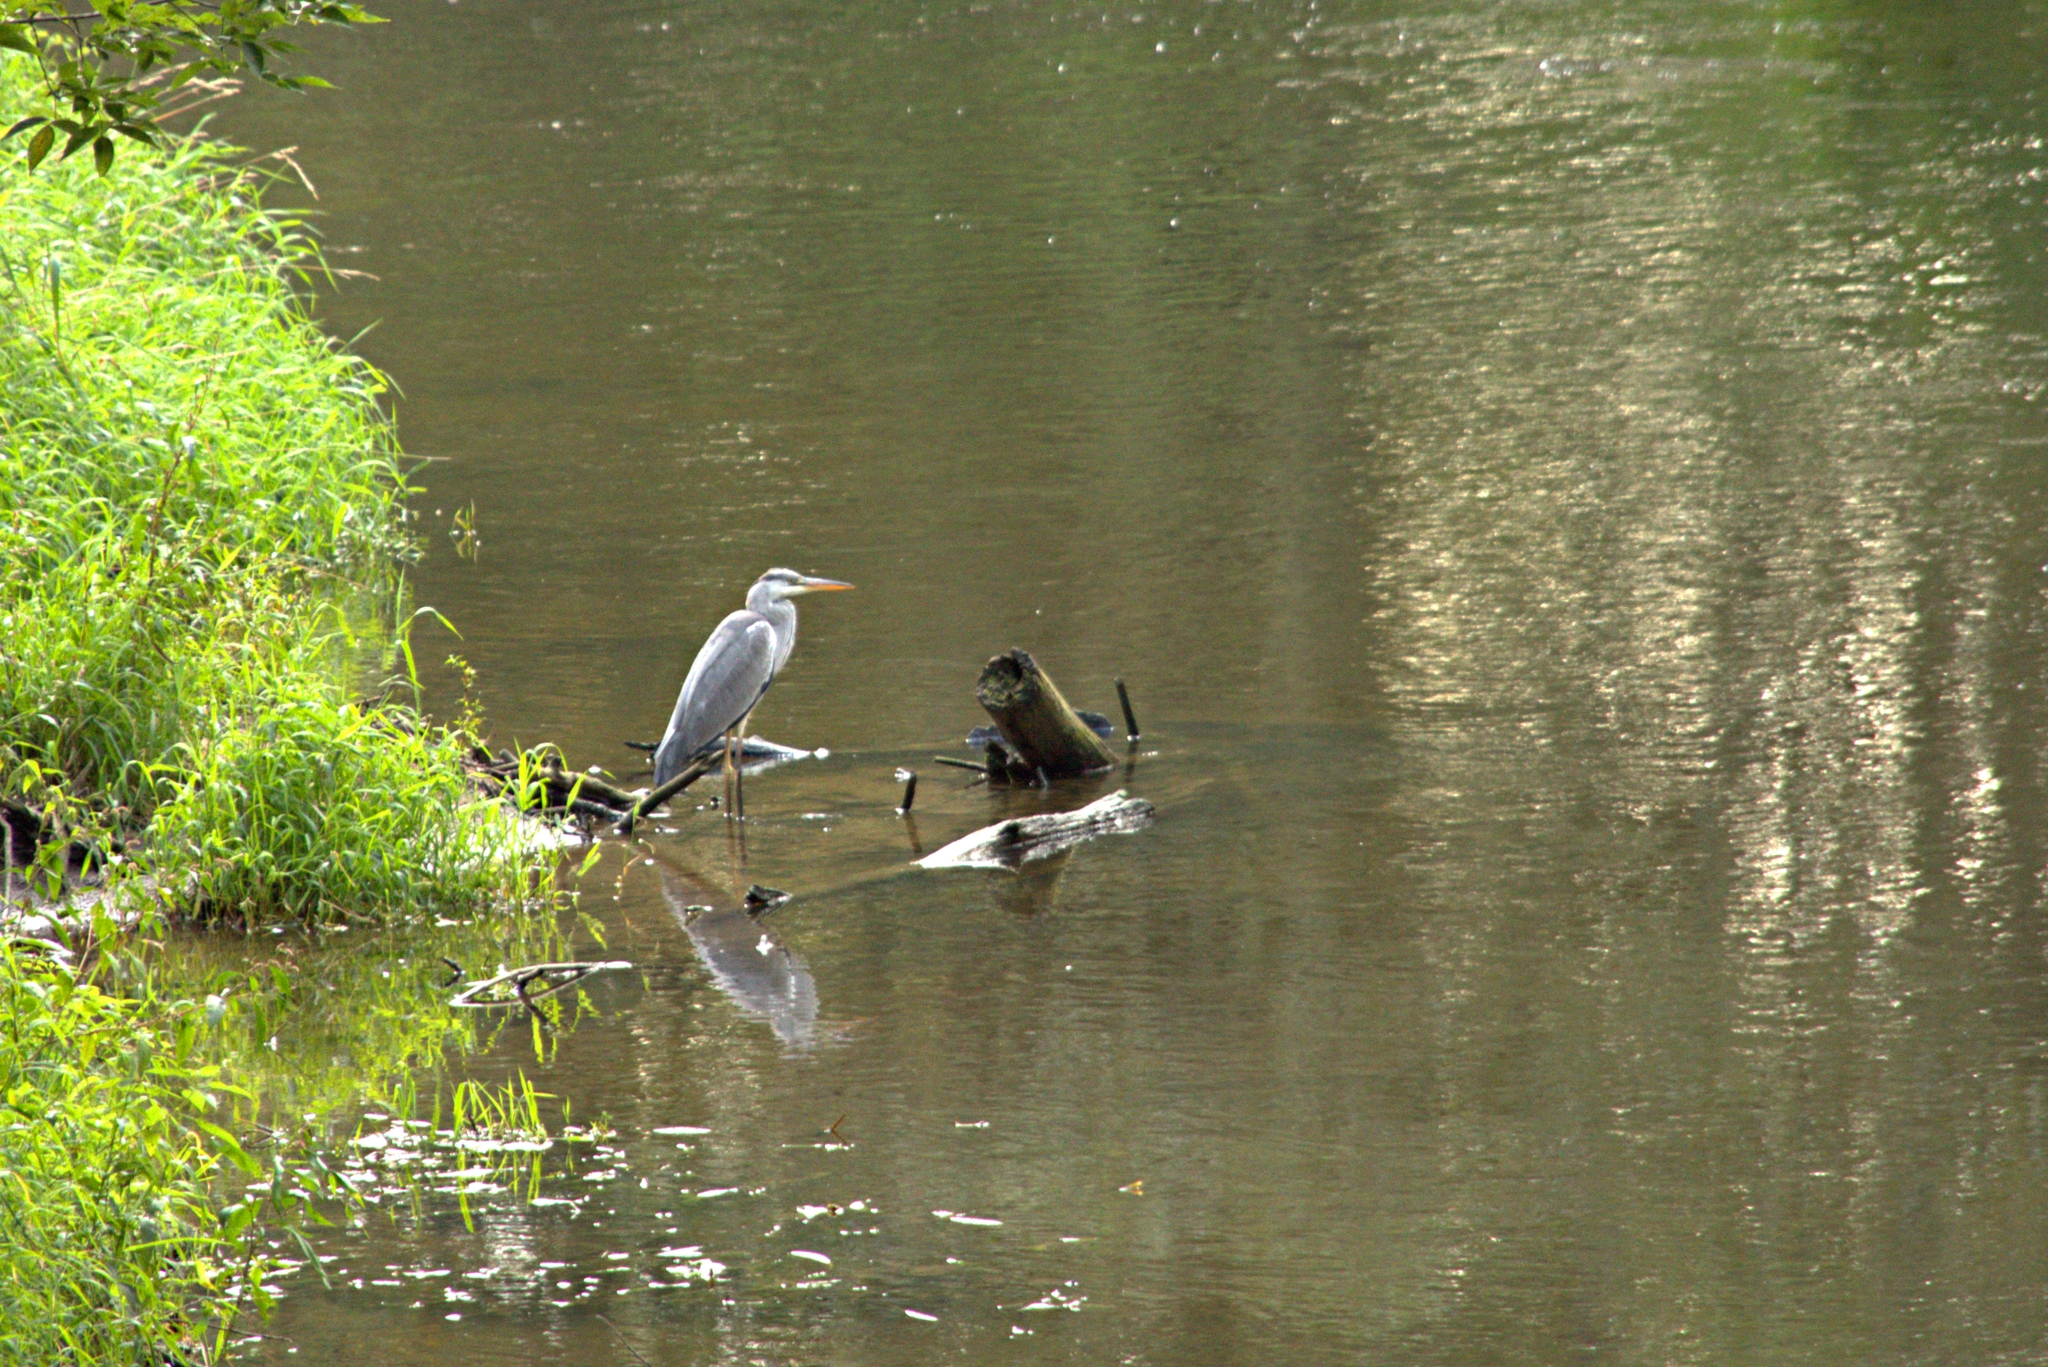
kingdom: Animalia
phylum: Chordata
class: Aves
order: Pelecaniformes
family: Ardeidae
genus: Ardea
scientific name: Ardea cinerea
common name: Grey heron
